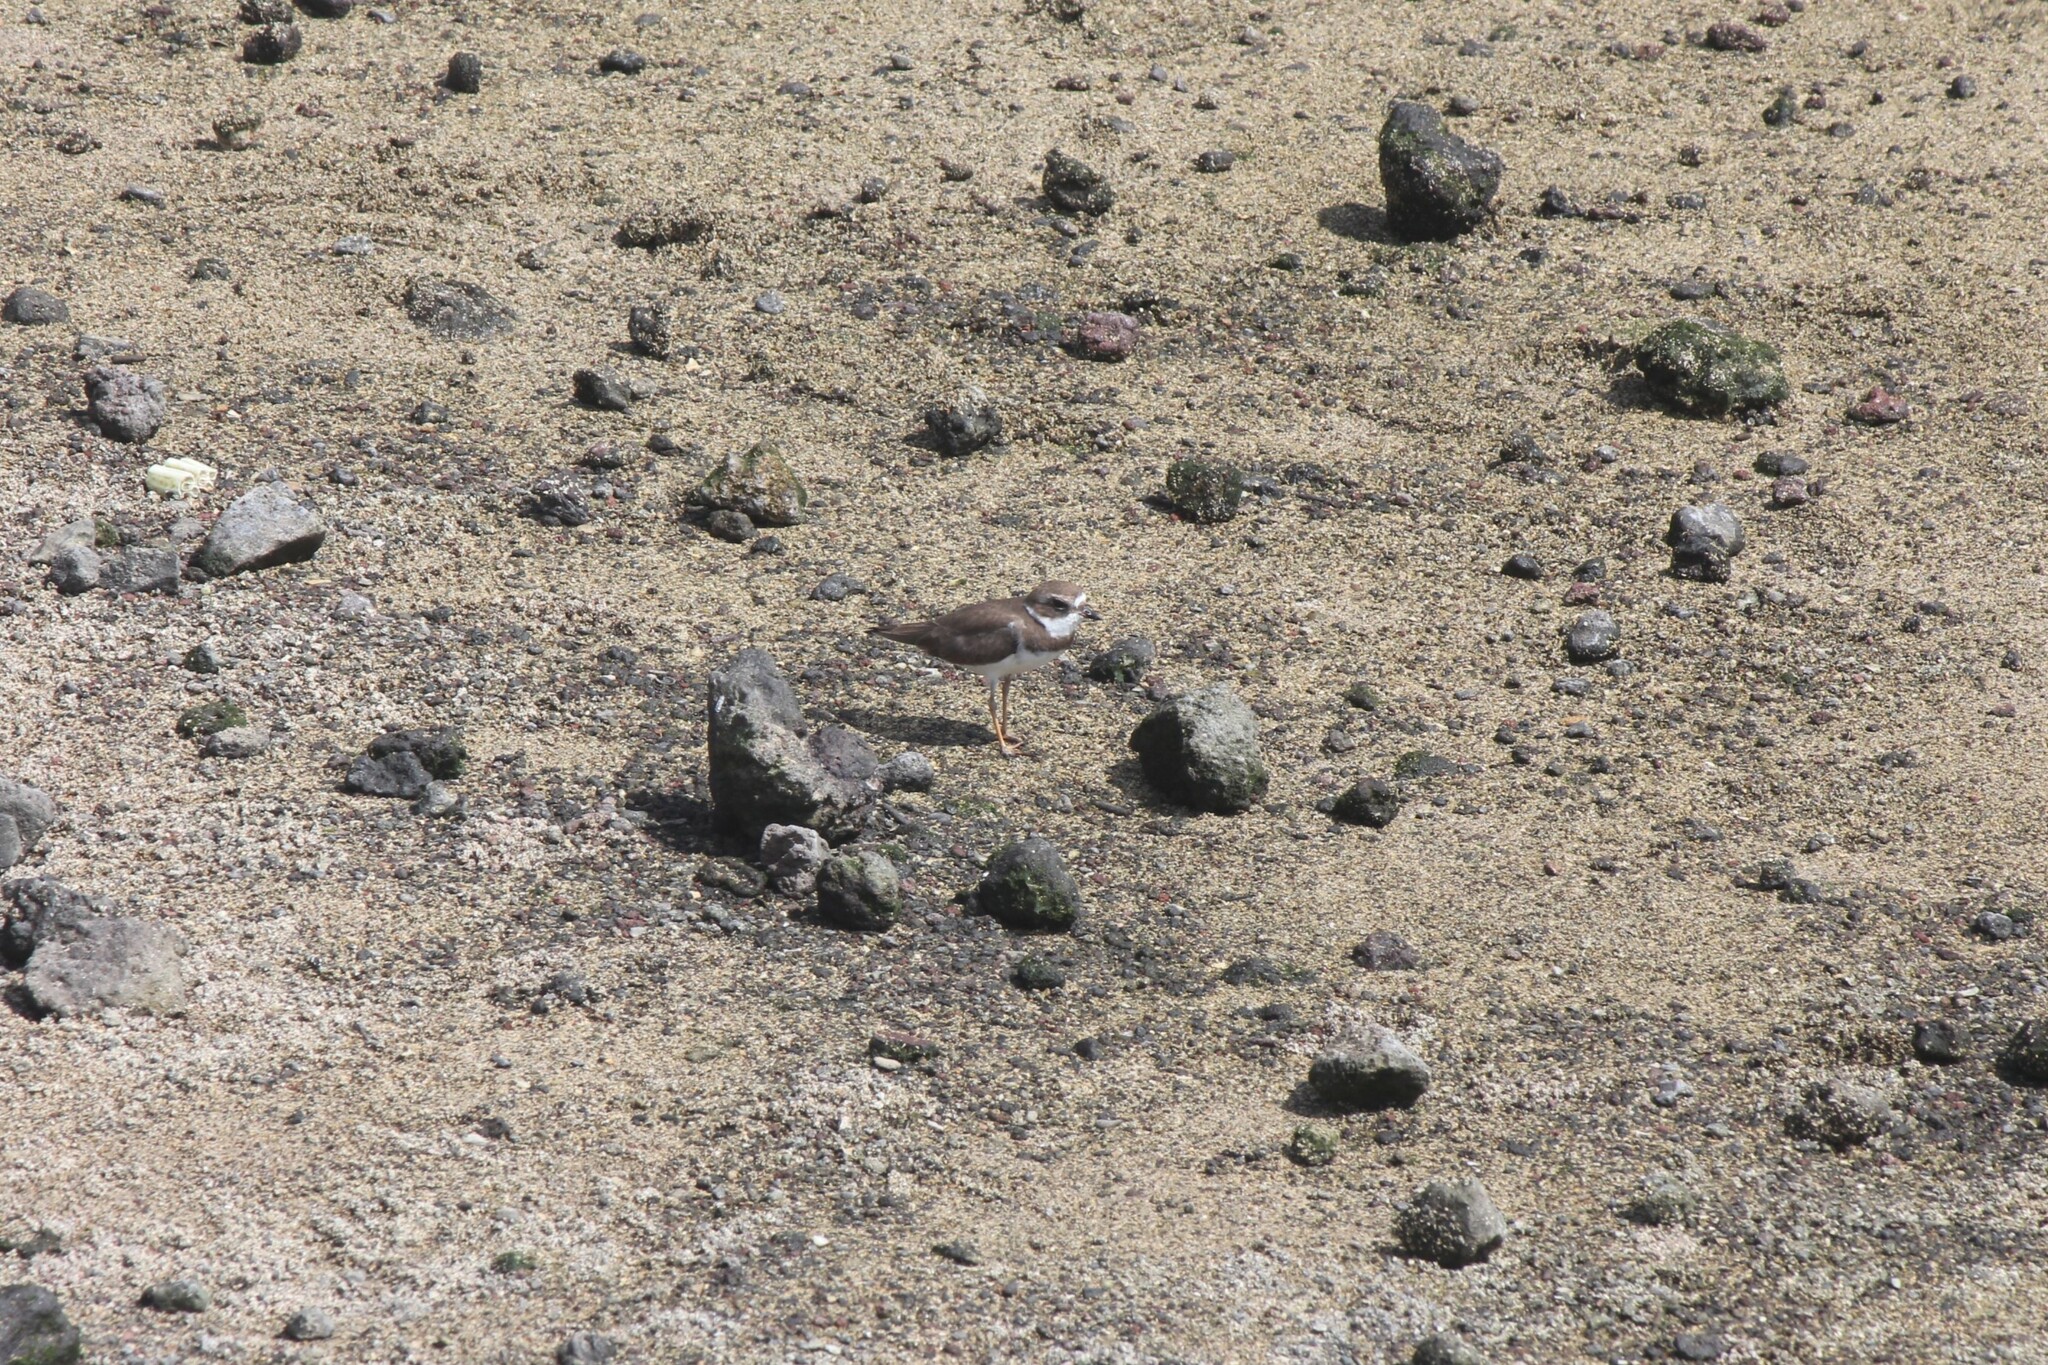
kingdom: Animalia
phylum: Chordata
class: Aves
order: Charadriiformes
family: Charadriidae
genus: Charadrius
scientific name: Charadrius semipalmatus
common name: Semipalmated plover
